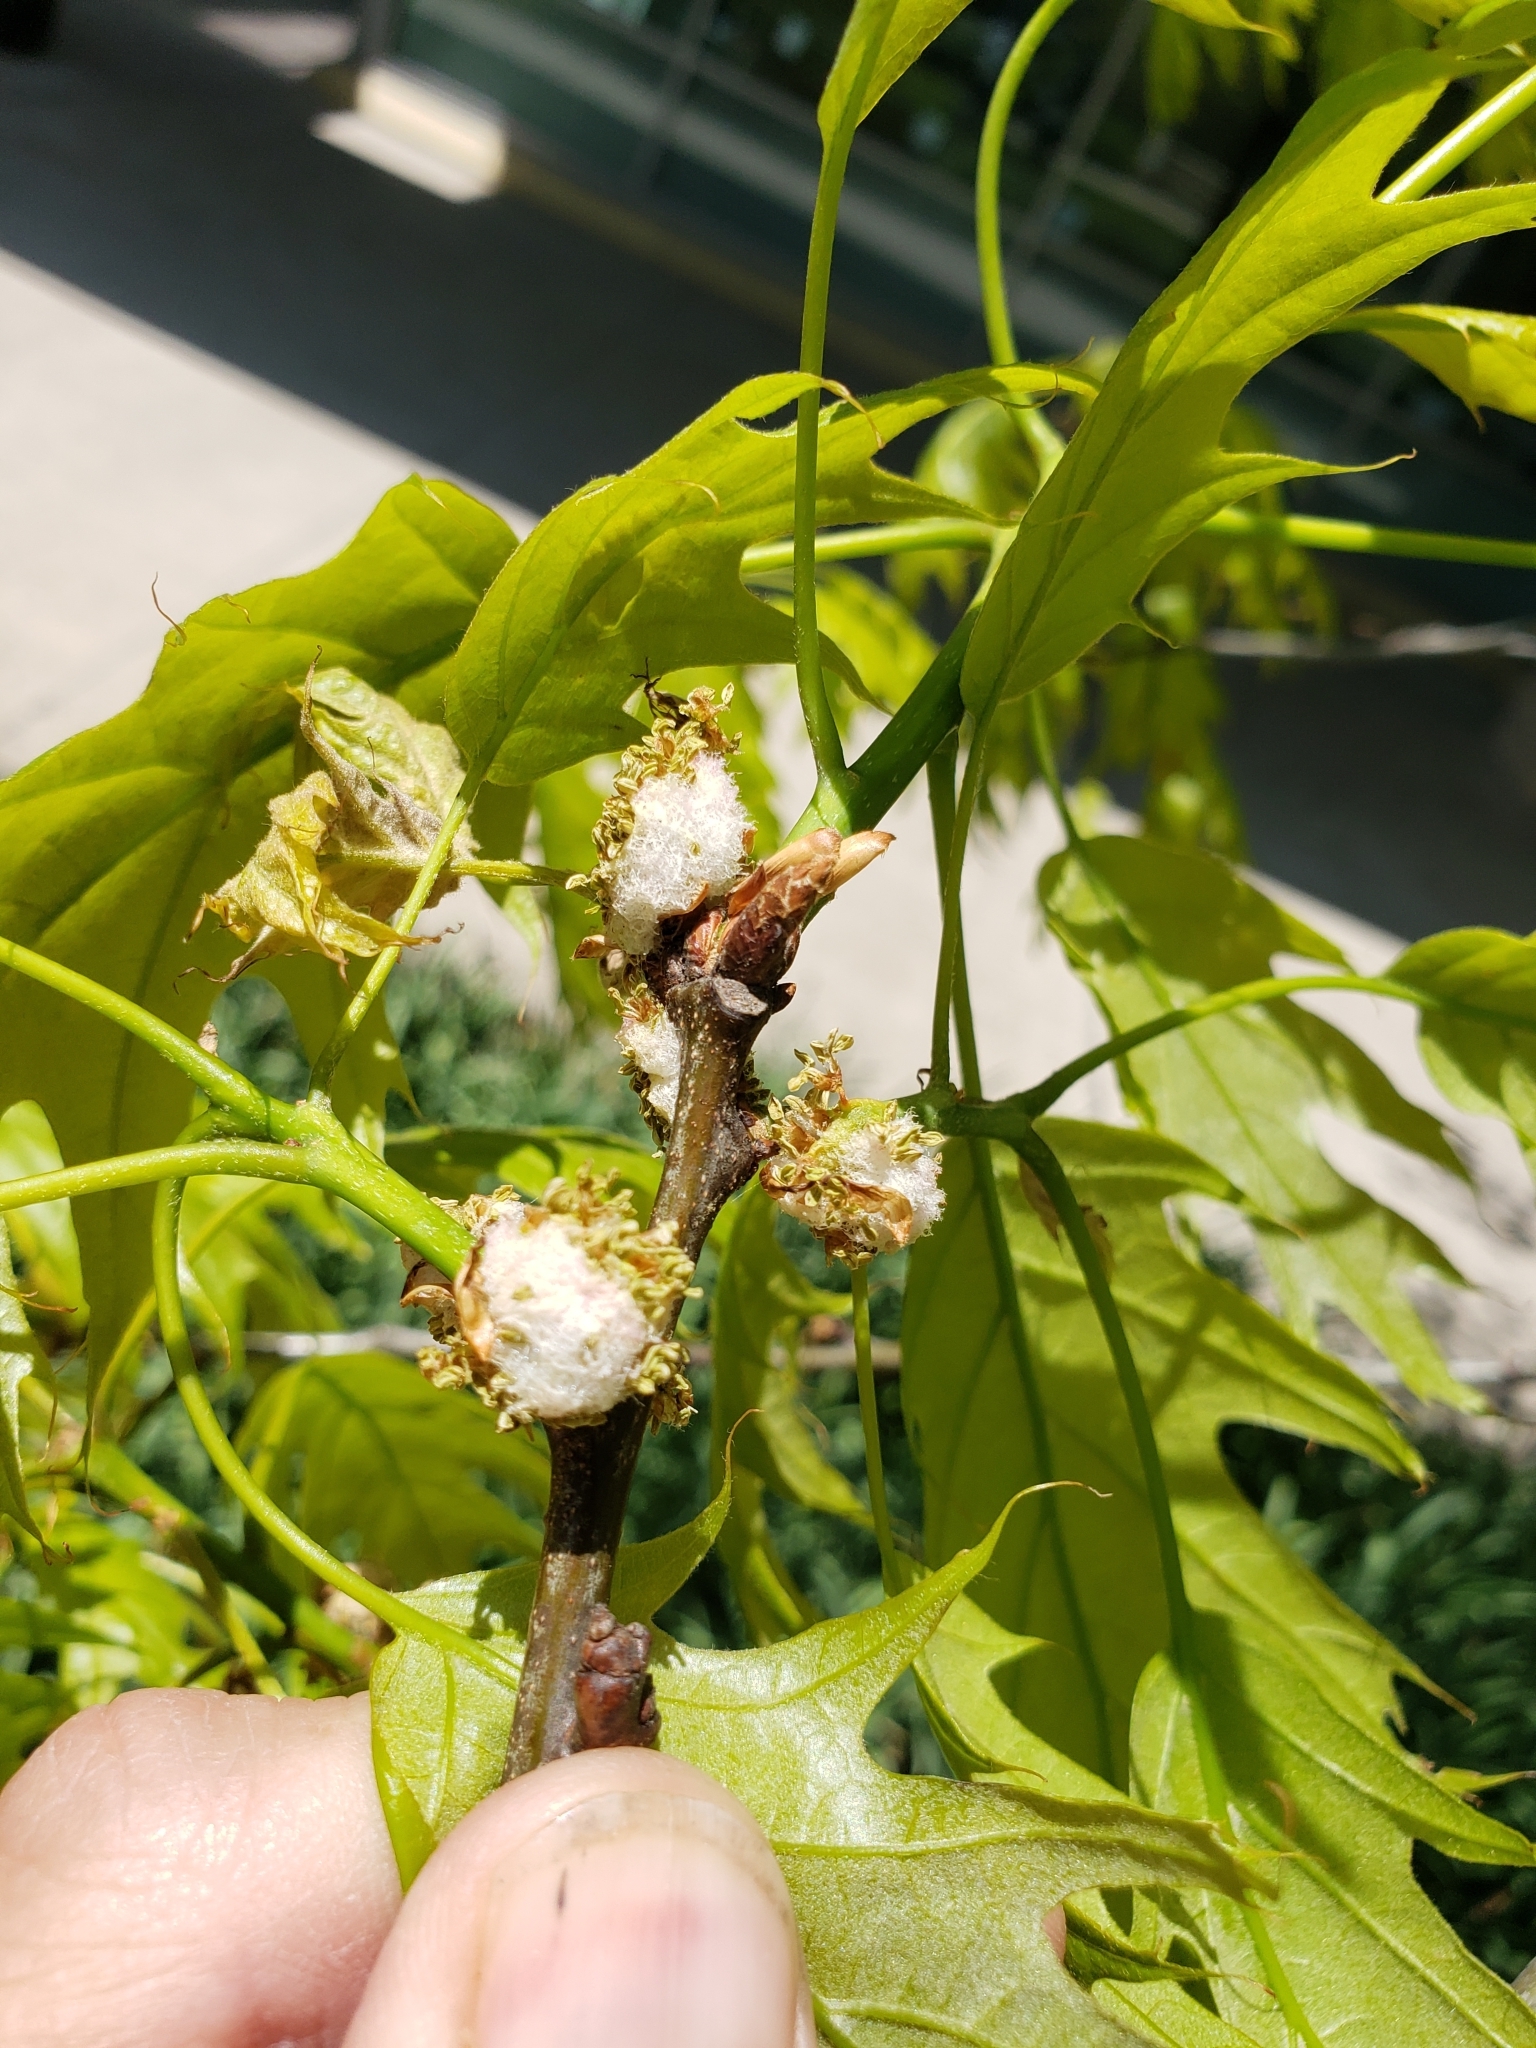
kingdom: Animalia
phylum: Arthropoda
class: Insecta
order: Hymenoptera
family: Cynipidae
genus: Callirhytis
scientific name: Callirhytis
